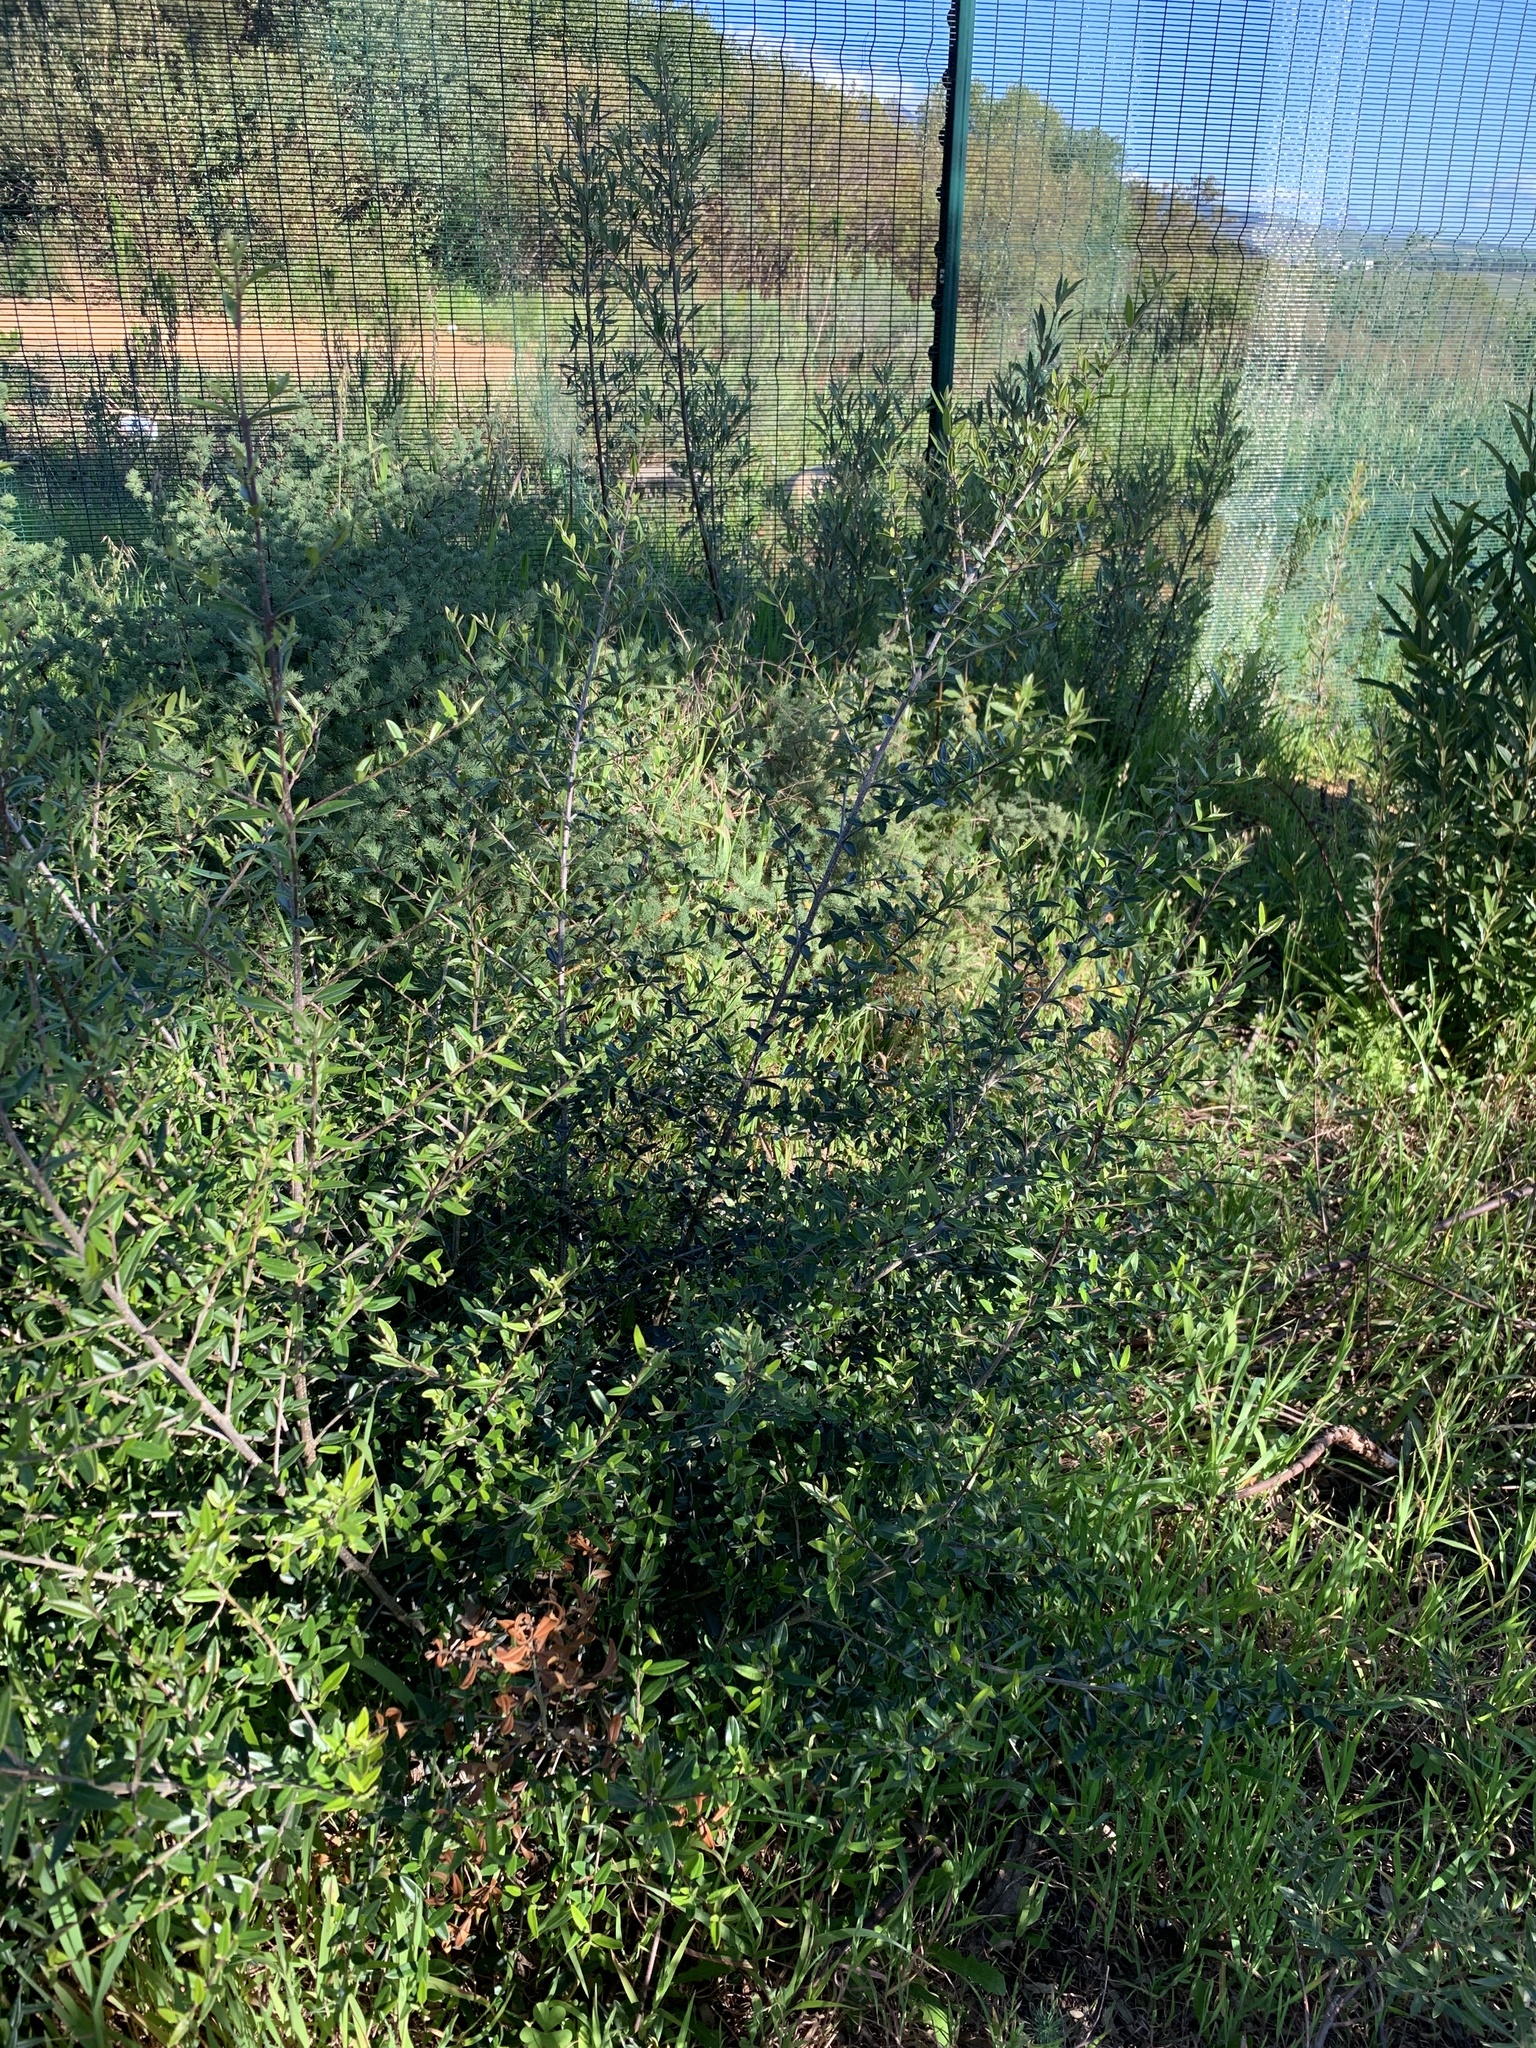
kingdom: Plantae
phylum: Tracheophyta
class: Magnoliopsida
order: Lamiales
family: Oleaceae
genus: Olea
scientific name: Olea europaea
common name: Olive
